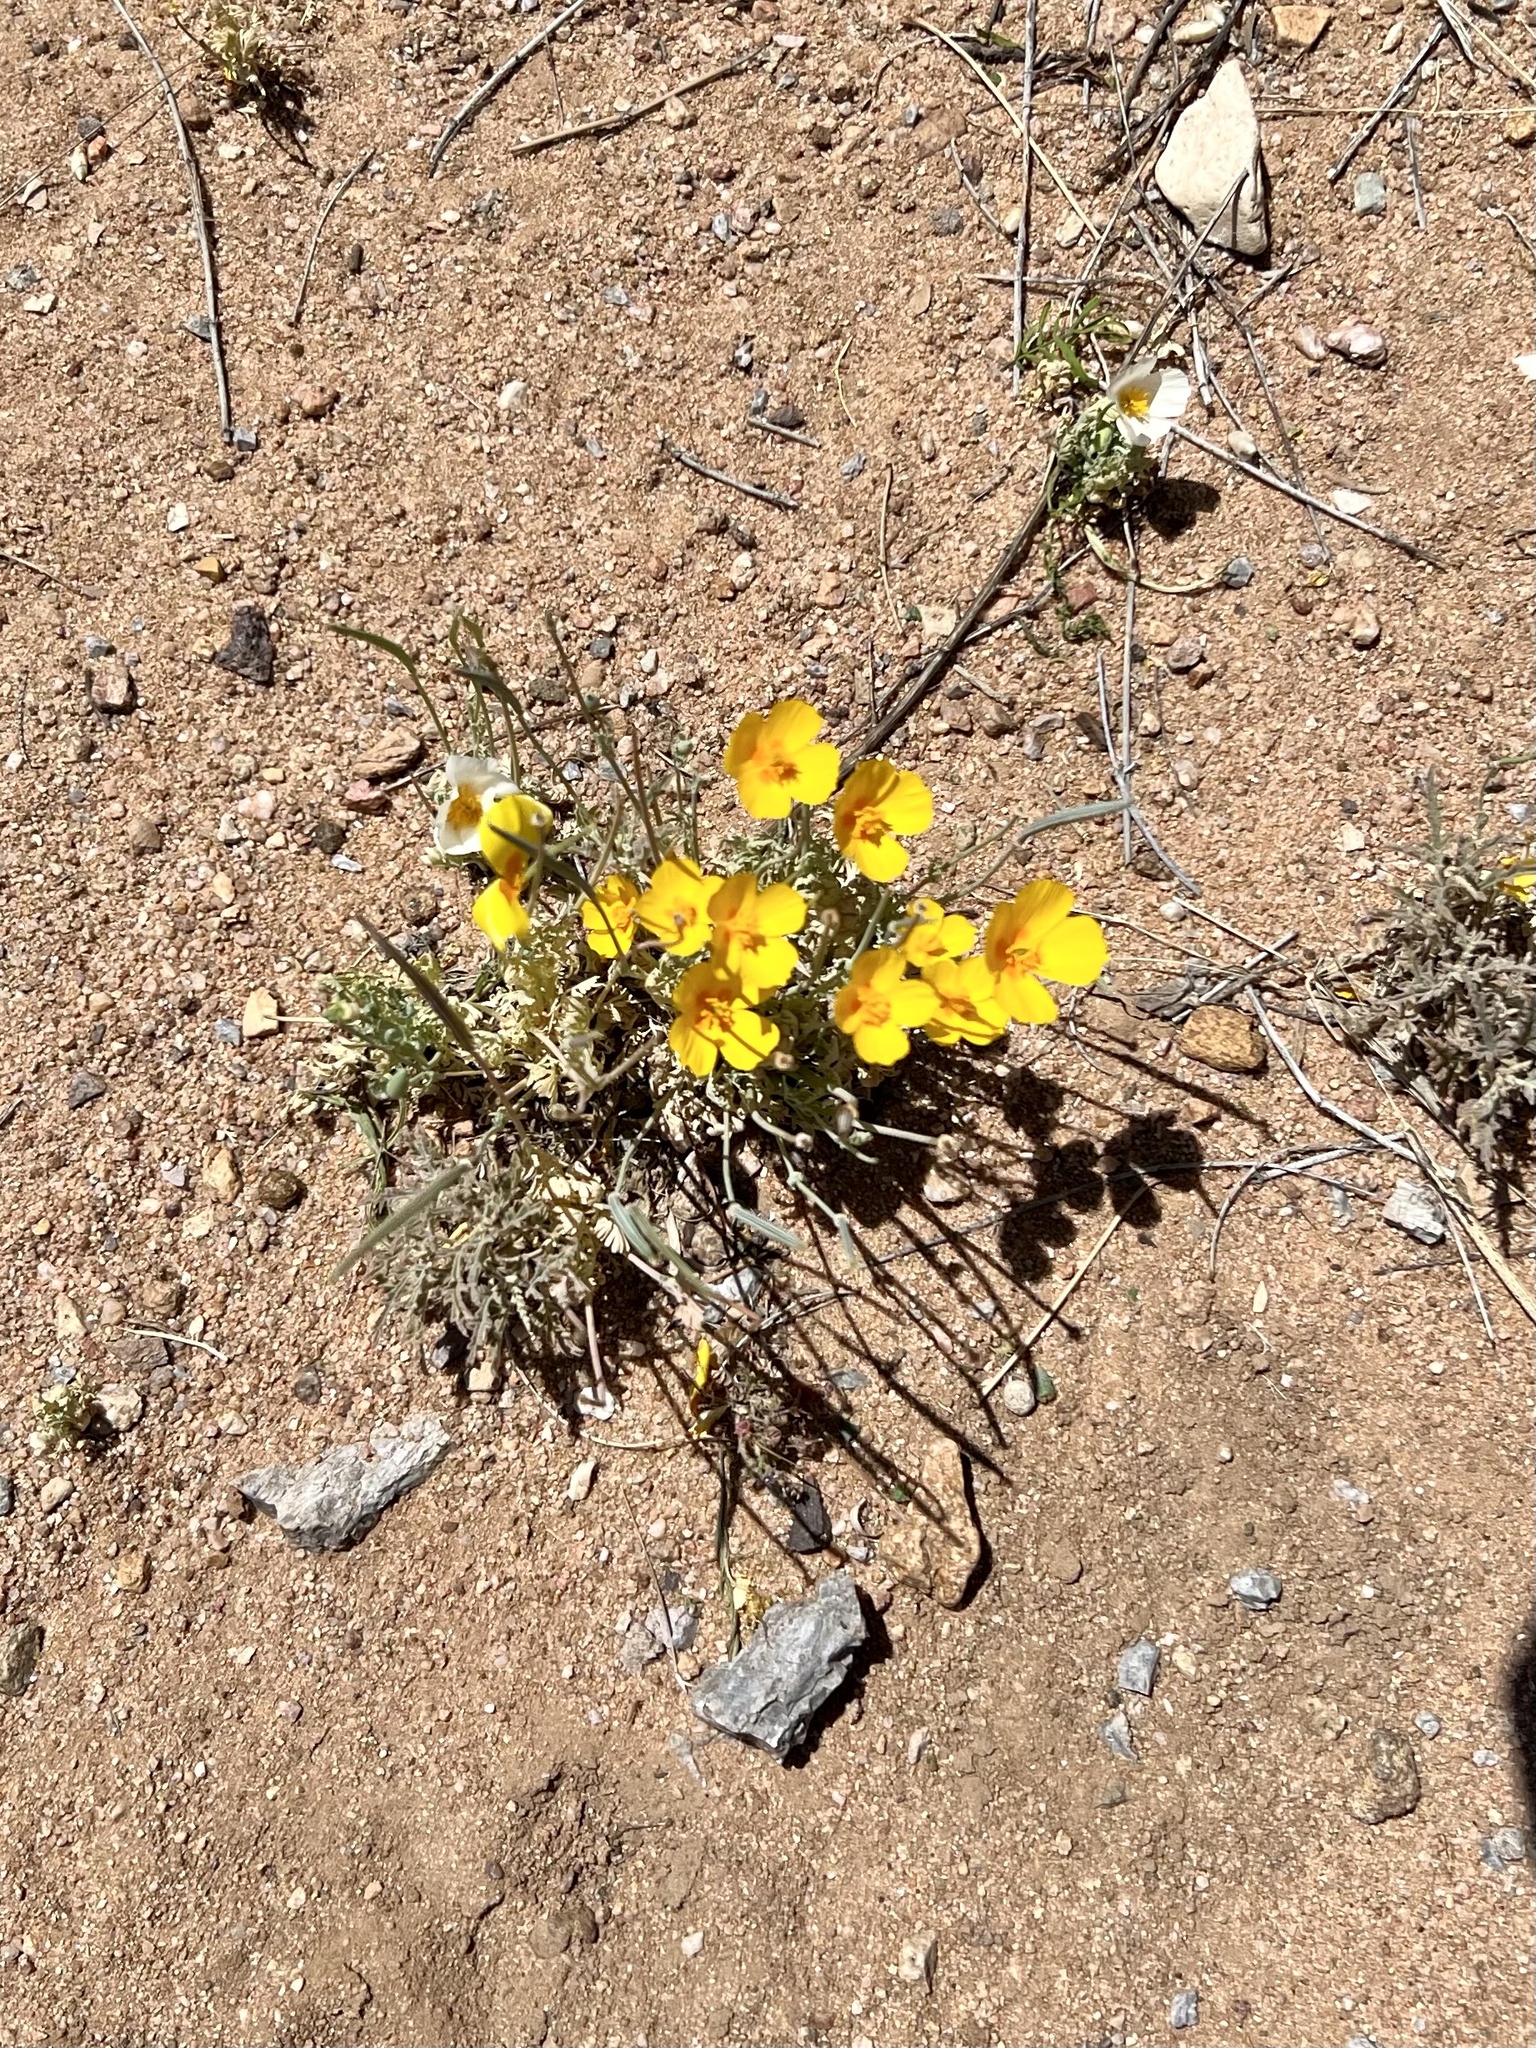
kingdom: Plantae
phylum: Tracheophyta
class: Magnoliopsida
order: Ranunculales
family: Papaveraceae
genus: Eschscholzia
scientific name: Eschscholzia californica
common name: California poppy
